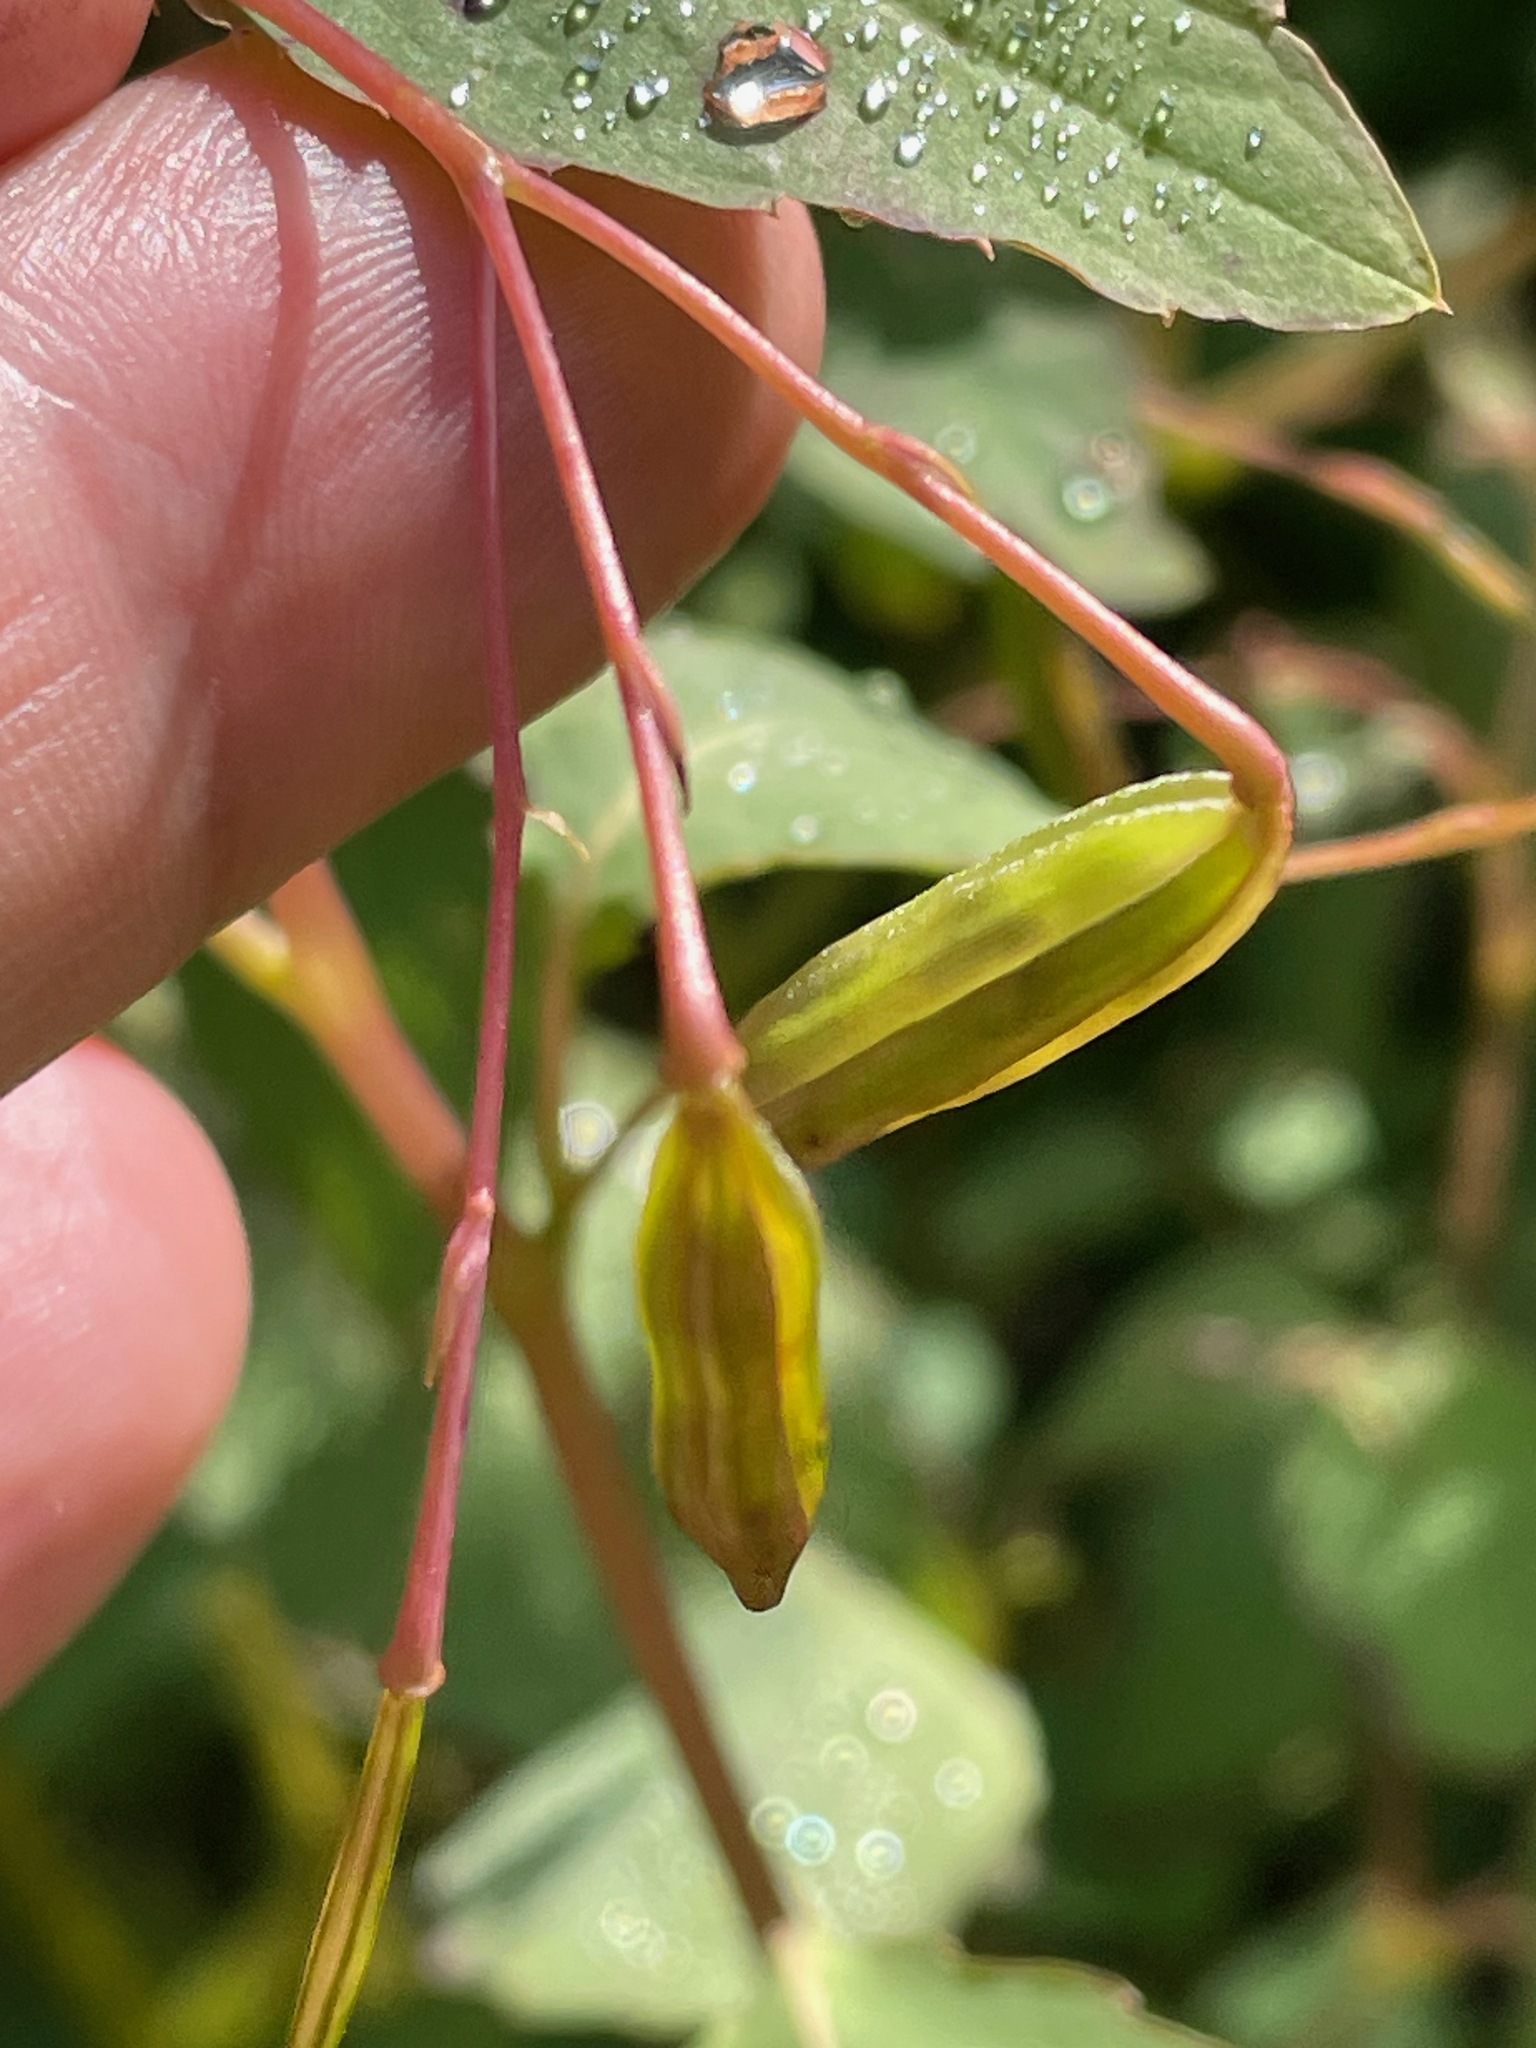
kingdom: Plantae
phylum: Tracheophyta
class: Magnoliopsida
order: Ericales
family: Balsaminaceae
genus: Impatiens
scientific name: Impatiens capensis
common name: Orange balsam
